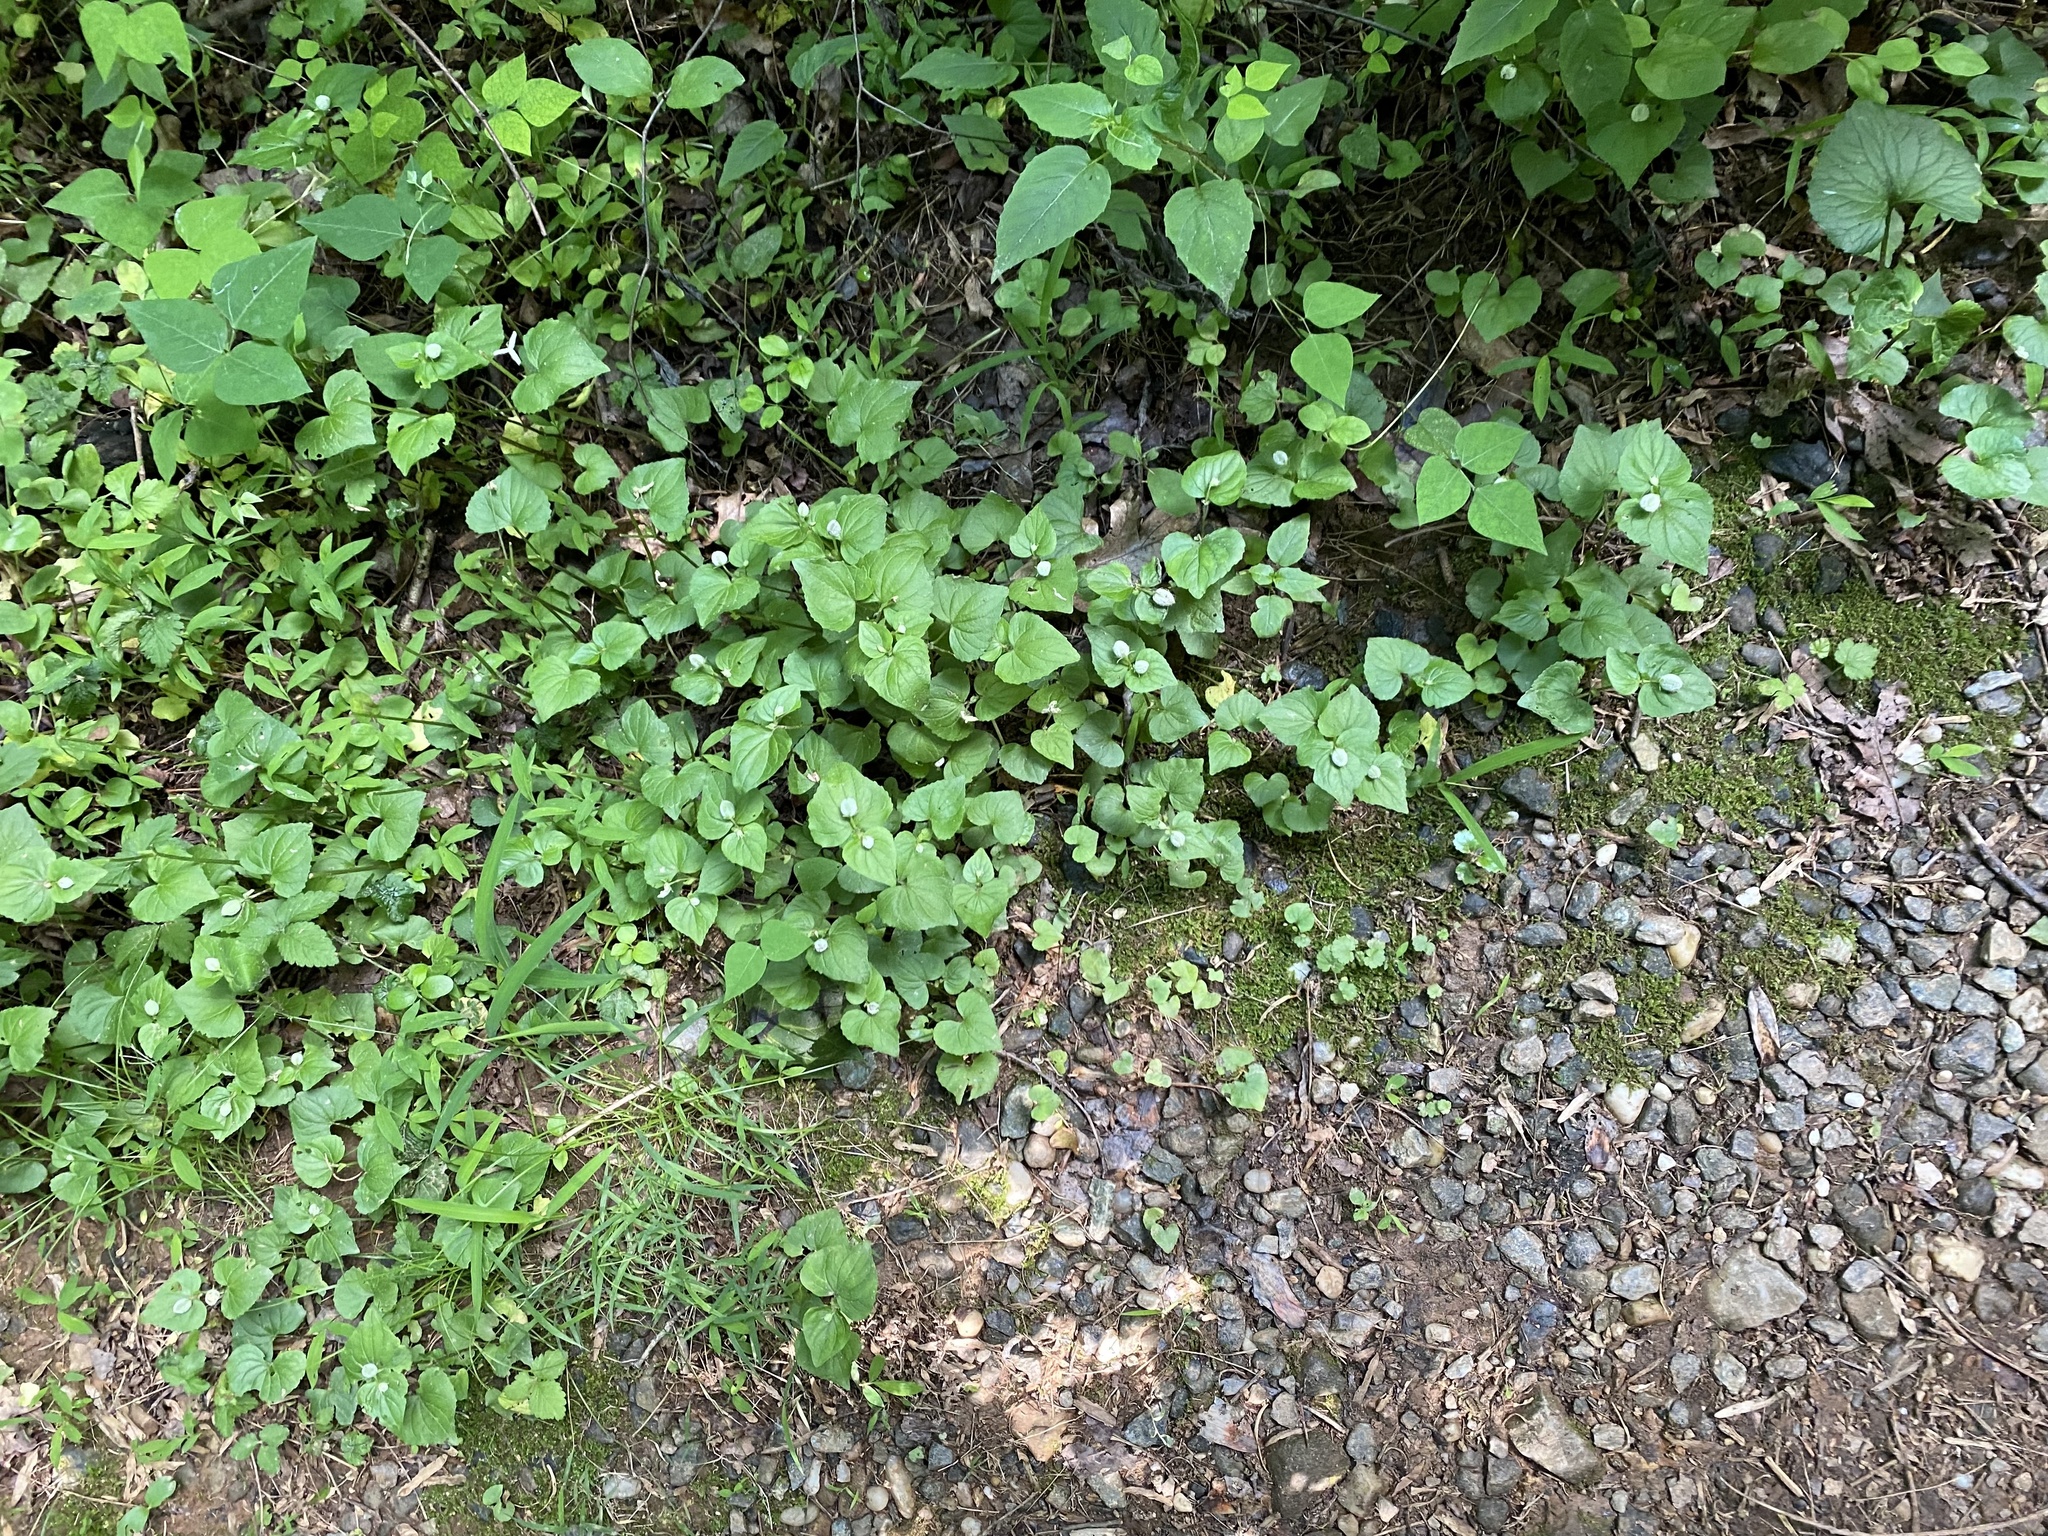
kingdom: Plantae
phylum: Tracheophyta
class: Magnoliopsida
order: Malpighiales
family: Violaceae
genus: Viola
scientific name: Viola eriocarpa
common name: Smooth yellow violet
